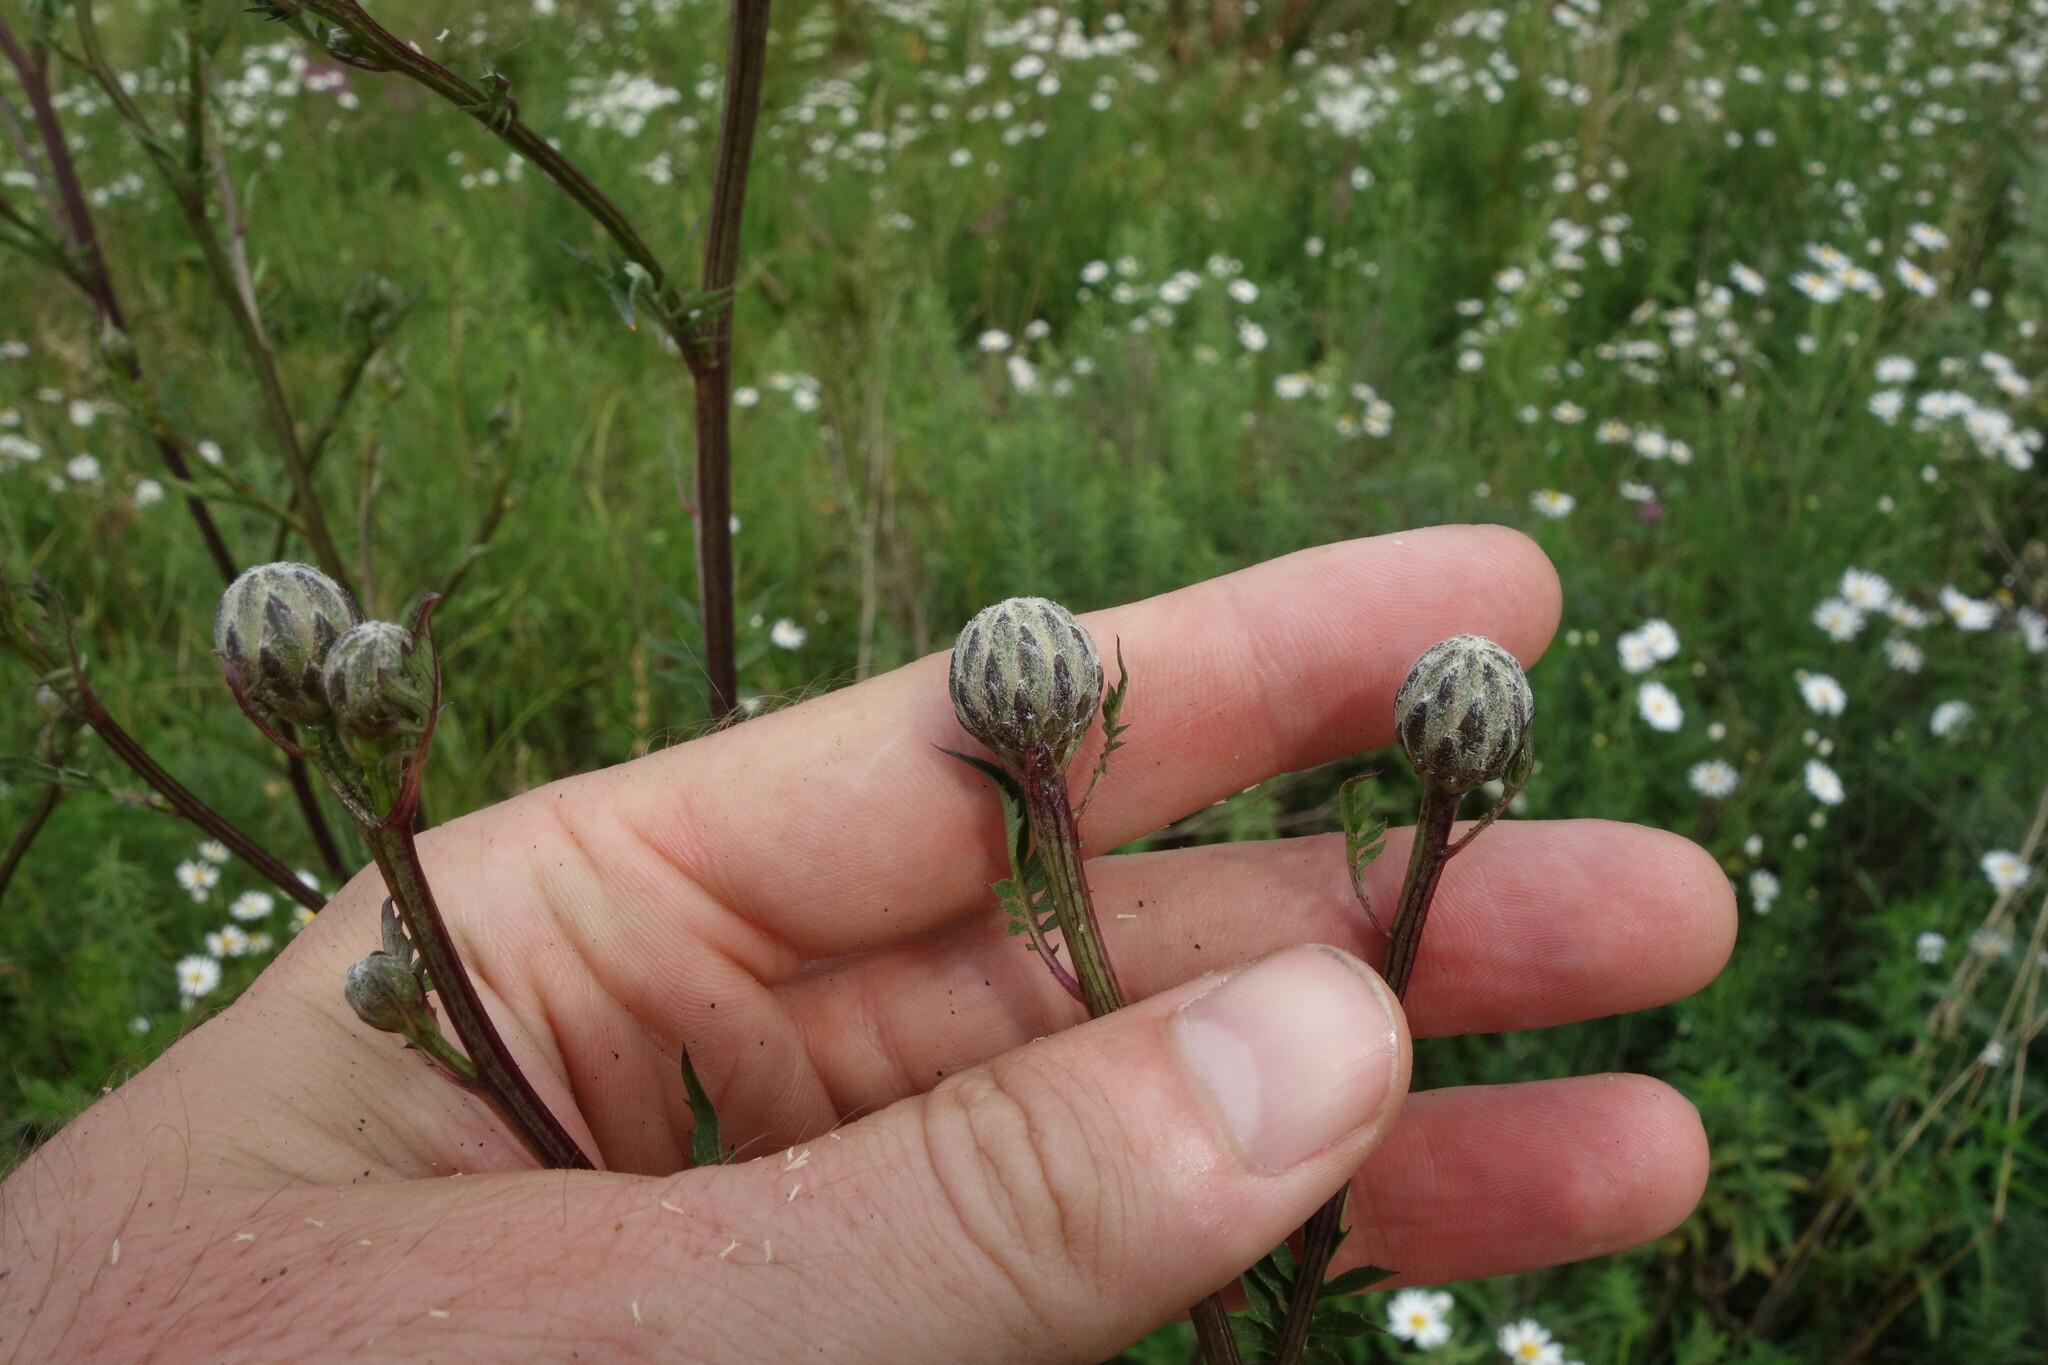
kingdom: Plantae
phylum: Tracheophyta
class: Magnoliopsida
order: Asterales
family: Asteraceae
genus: Serratula
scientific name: Serratula coronata
